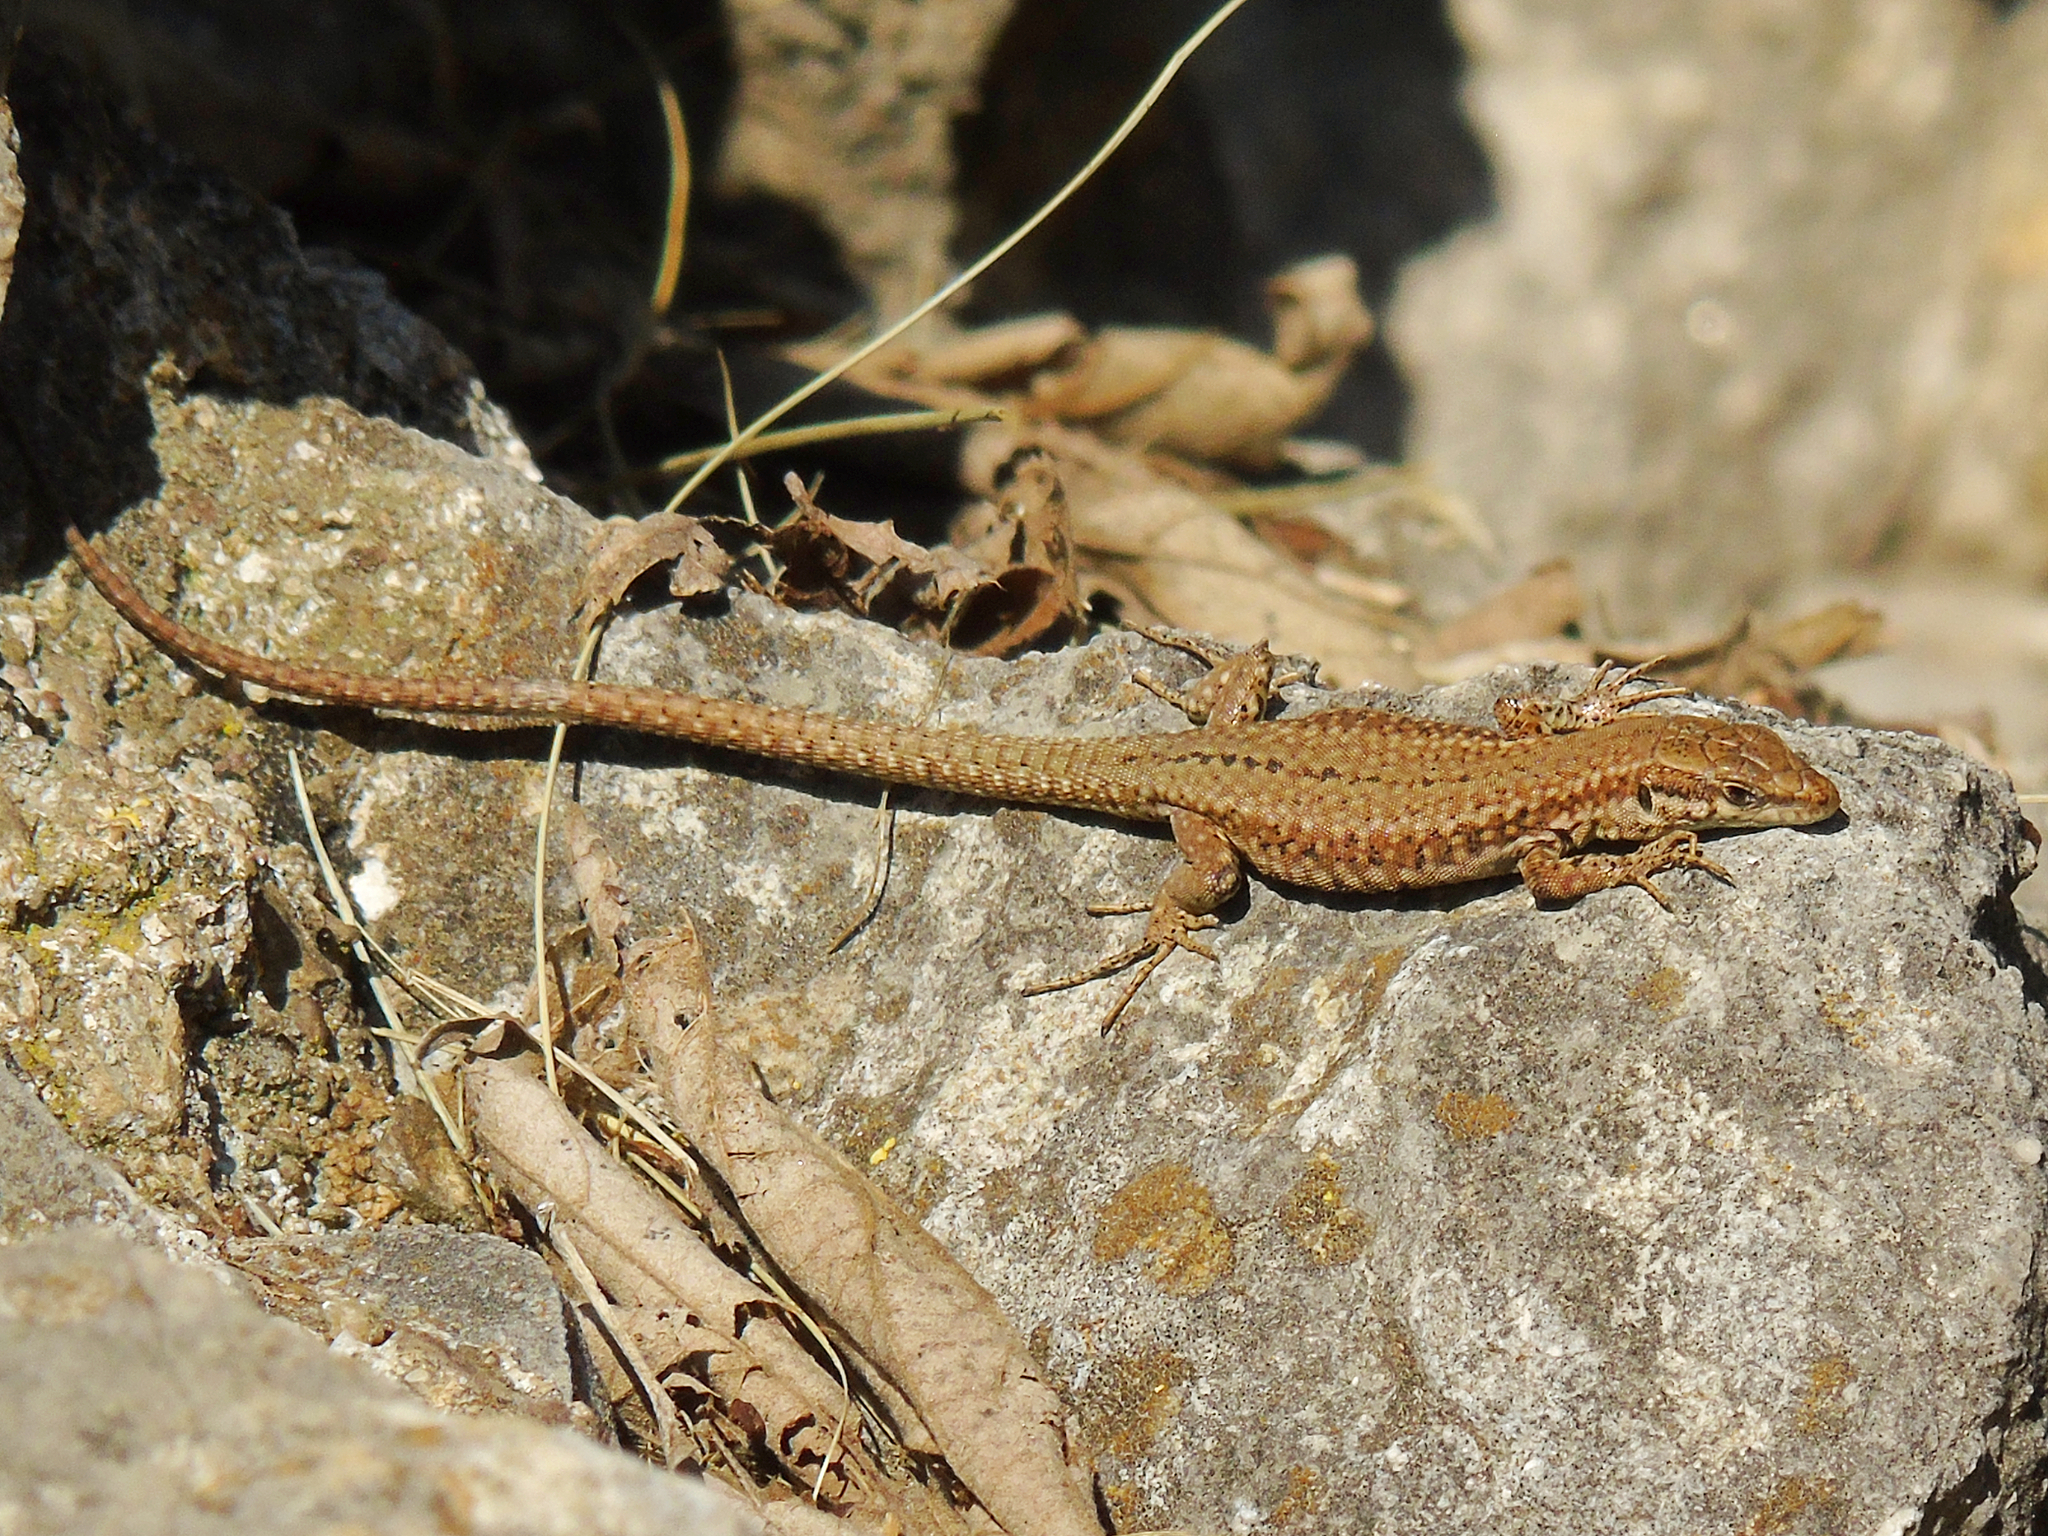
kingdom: Animalia
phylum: Chordata
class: Squamata
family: Lacertidae
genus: Podarcis
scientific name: Podarcis liolepis
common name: Catalonian wall lizard
